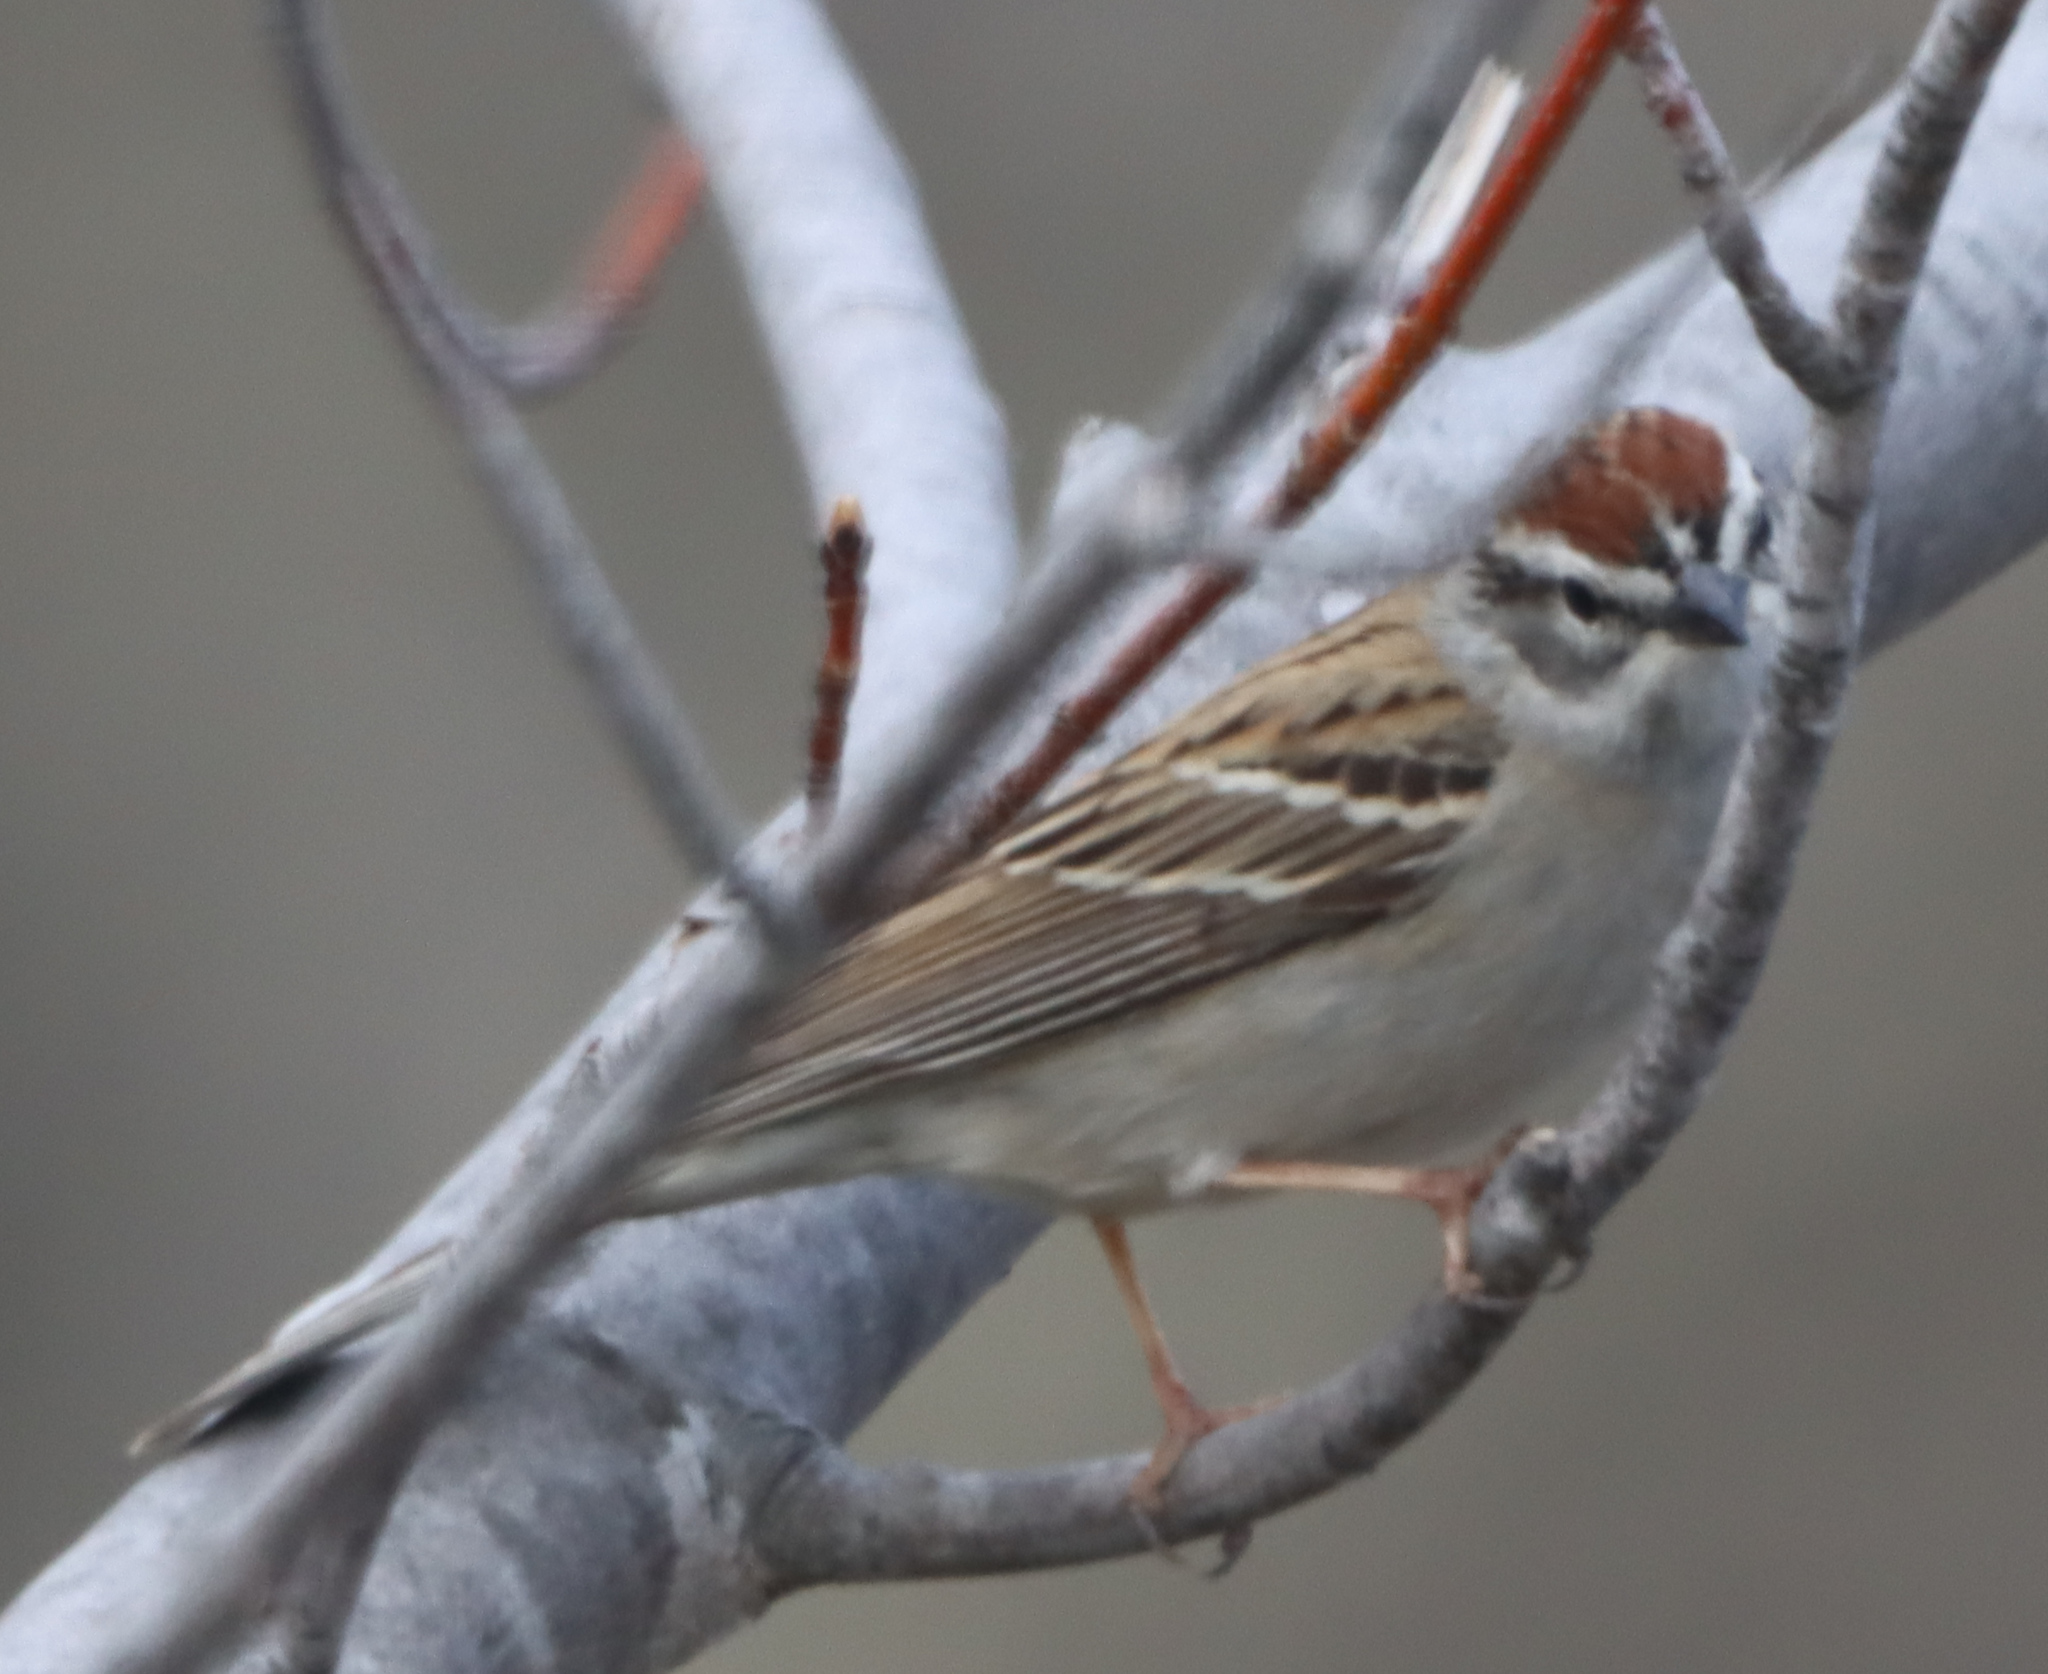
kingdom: Animalia
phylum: Chordata
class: Aves
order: Passeriformes
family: Passerellidae
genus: Spizella
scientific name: Spizella passerina
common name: Chipping sparrow
